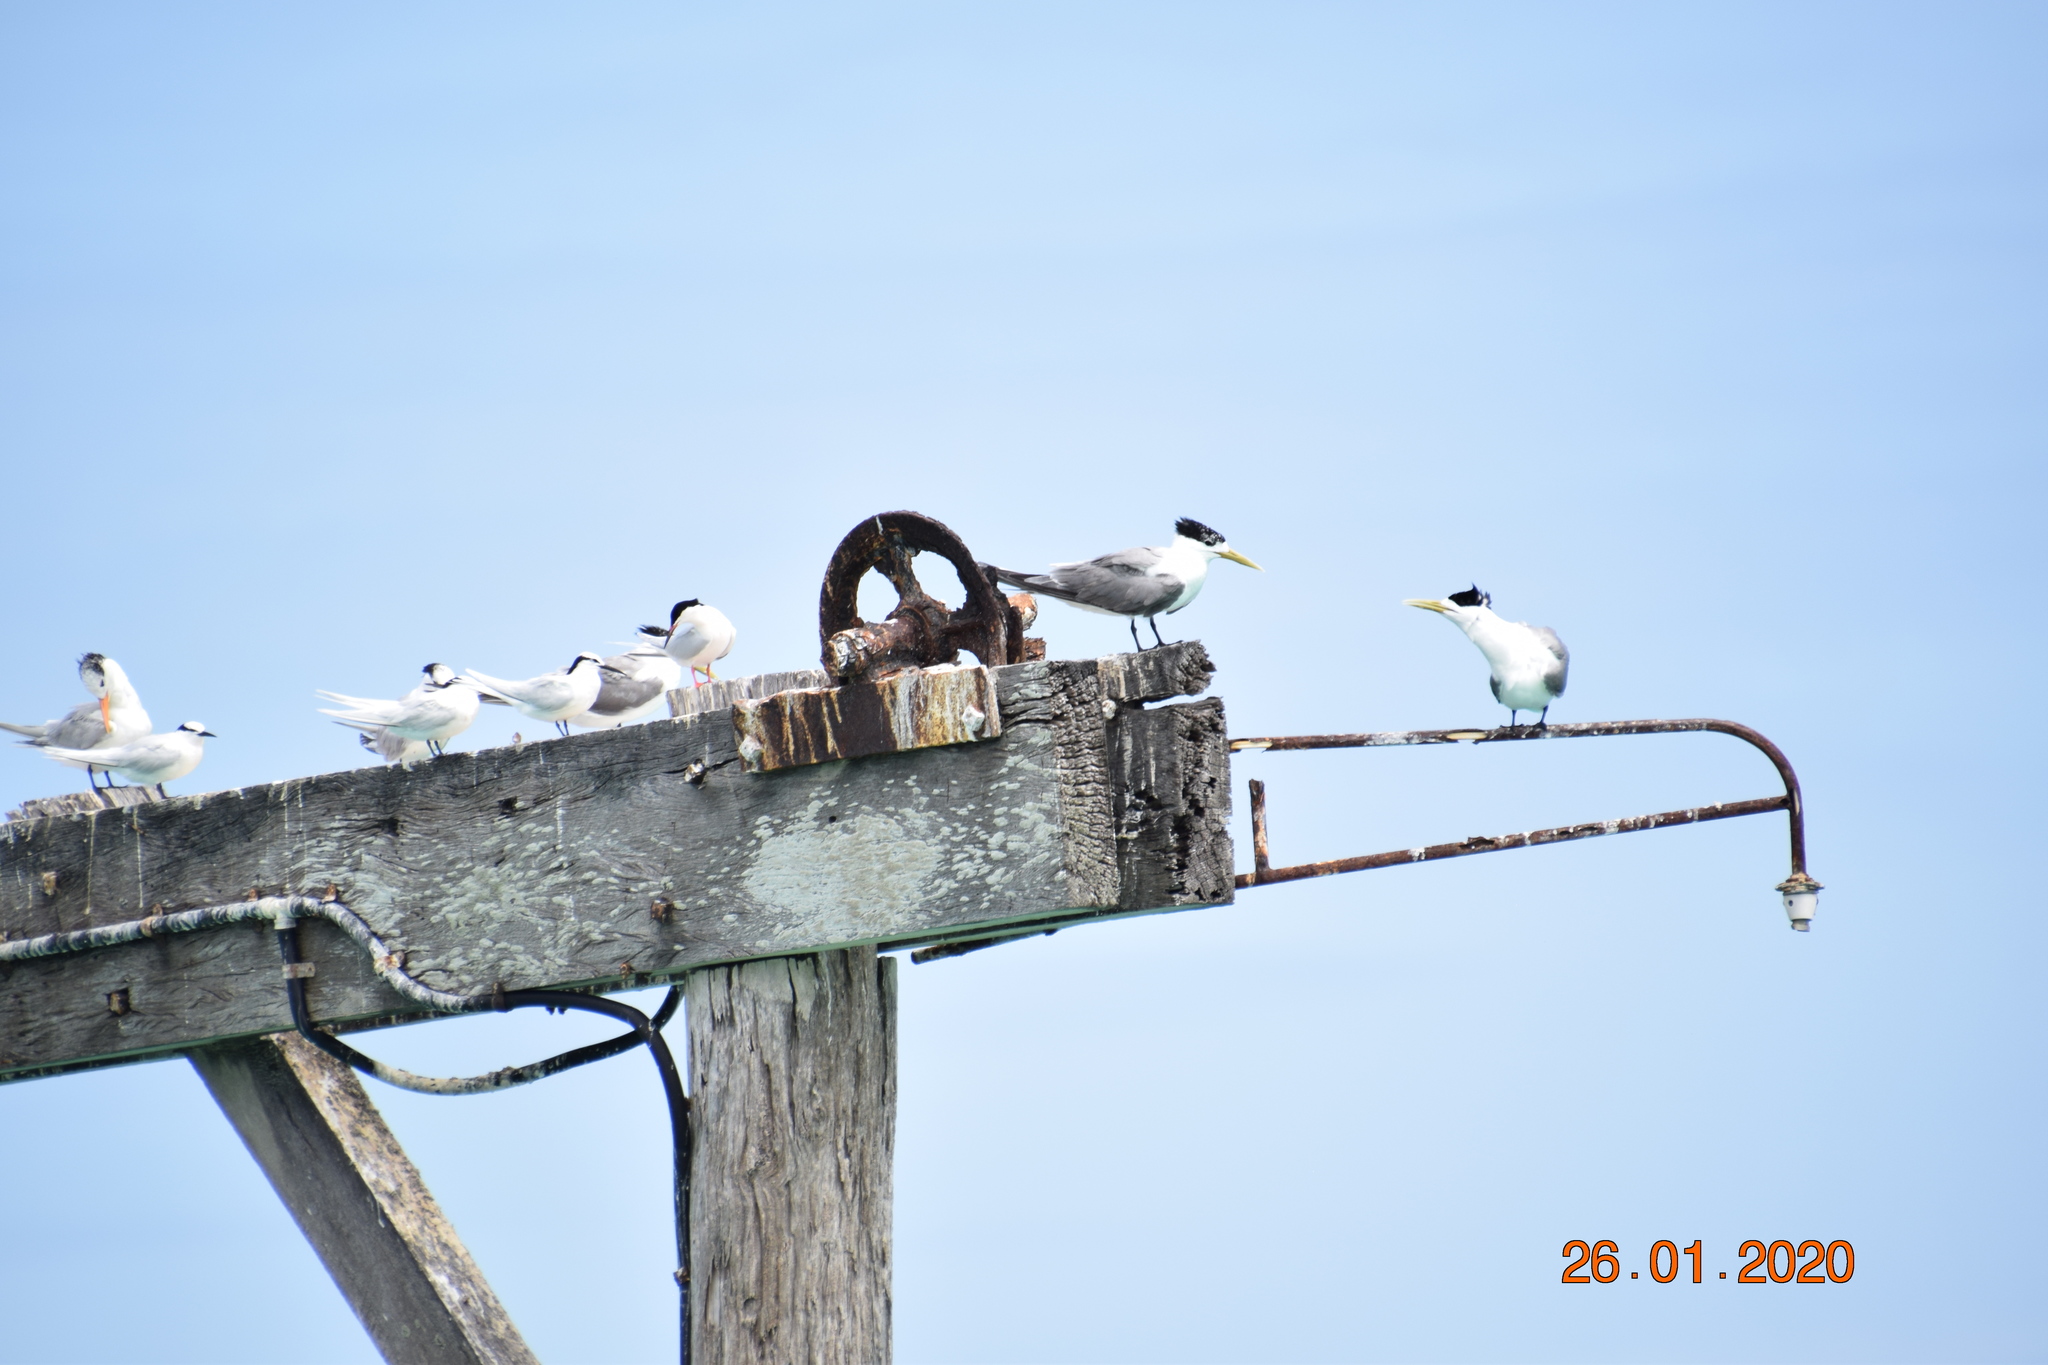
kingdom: Animalia
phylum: Chordata
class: Aves
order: Charadriiformes
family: Laridae
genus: Thalasseus
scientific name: Thalasseus bergii
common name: Greater crested tern
